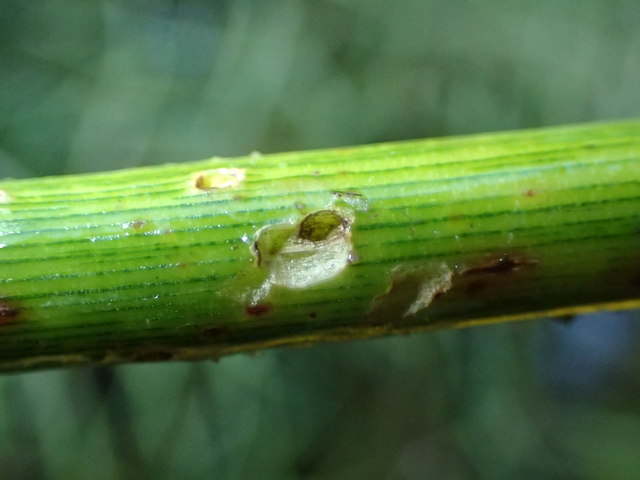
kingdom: Animalia
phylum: Arthropoda
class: Insecta
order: Coleoptera
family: Chrysomelidae
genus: Agasicles
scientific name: Agasicles hygrophila
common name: Alligatorweed flea beetle
